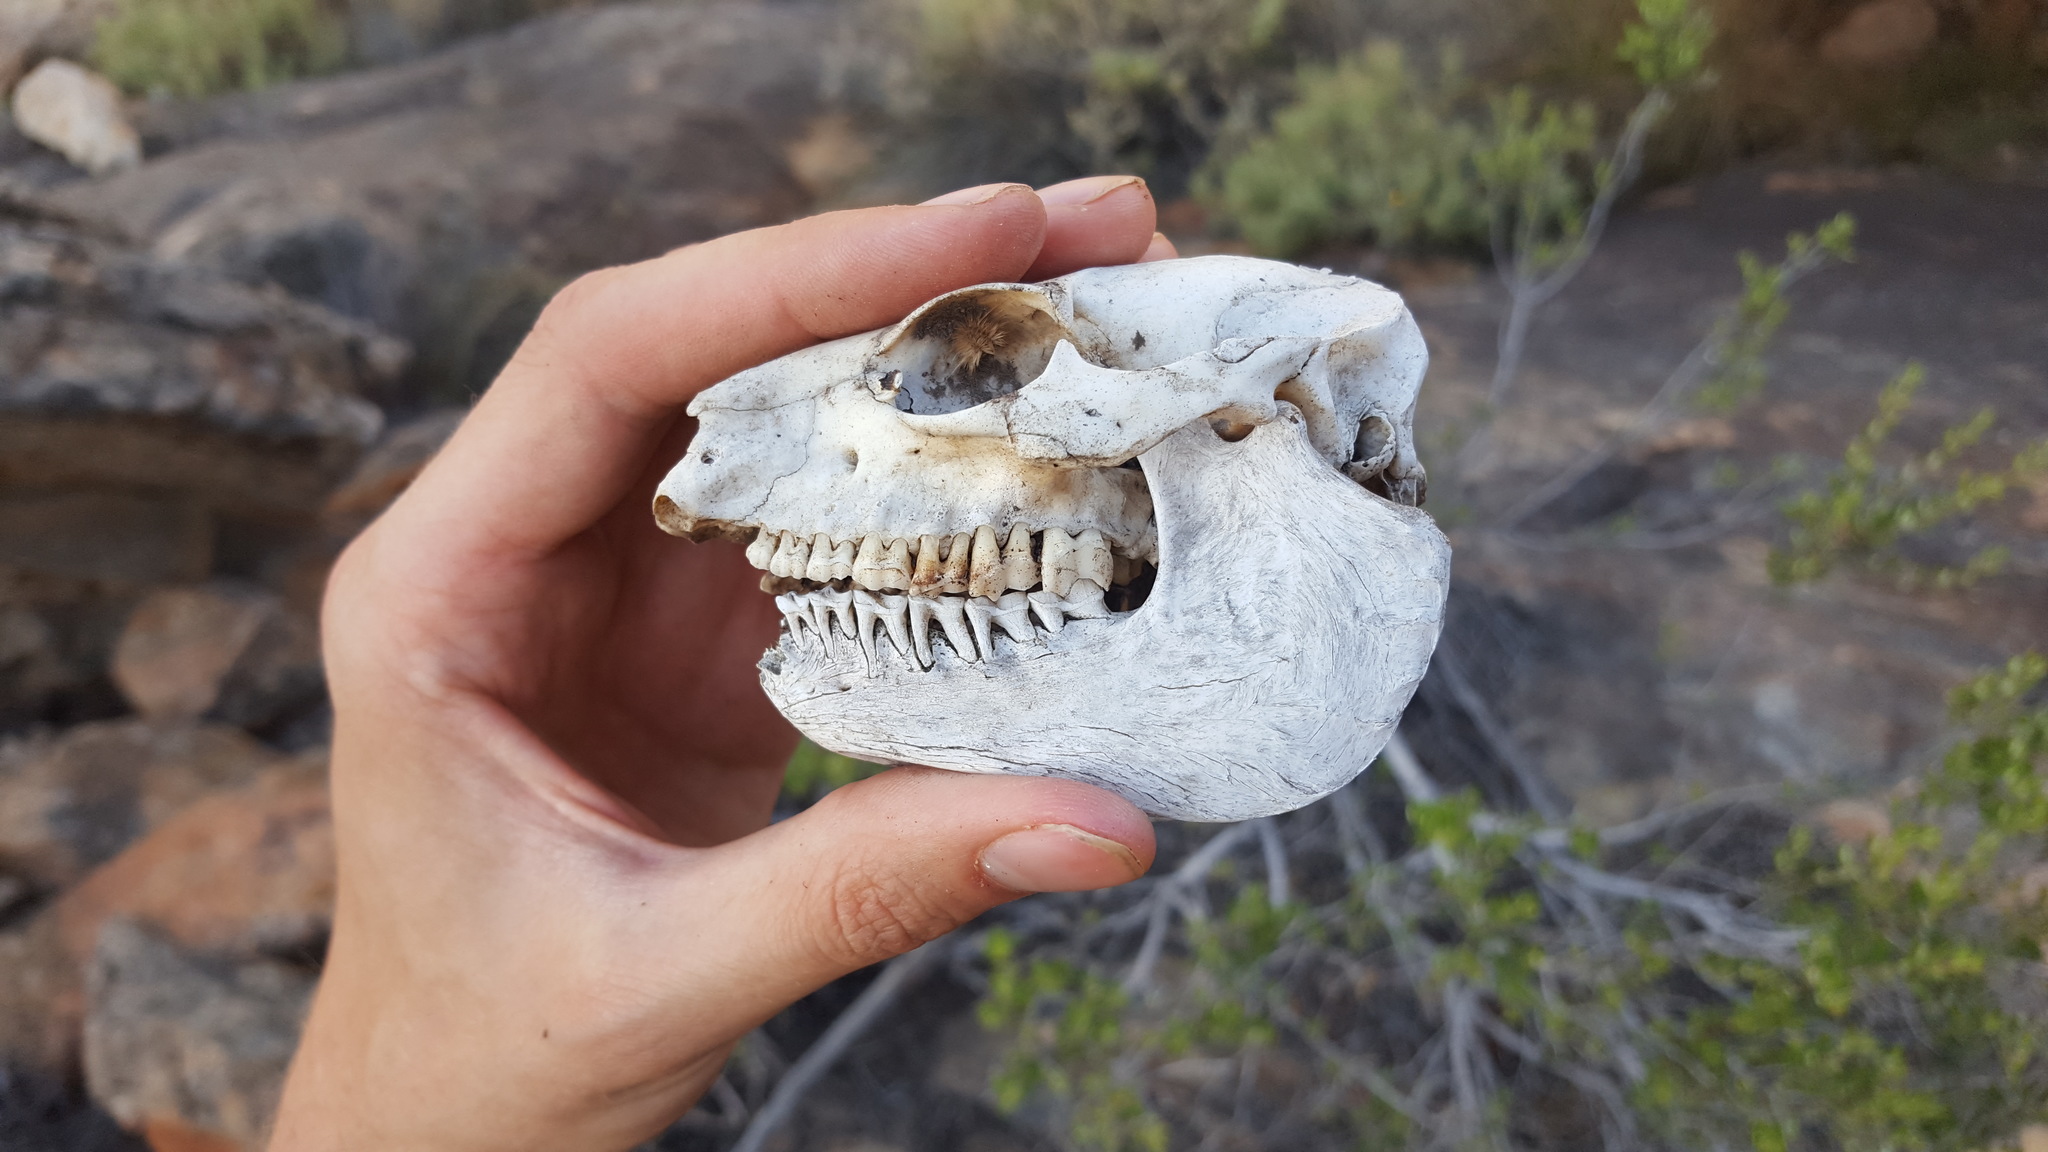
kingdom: Animalia
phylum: Chordata
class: Mammalia
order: Hyracoidea
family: Procaviidae
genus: Procavia
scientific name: Procavia capensis
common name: Rock hyrax
